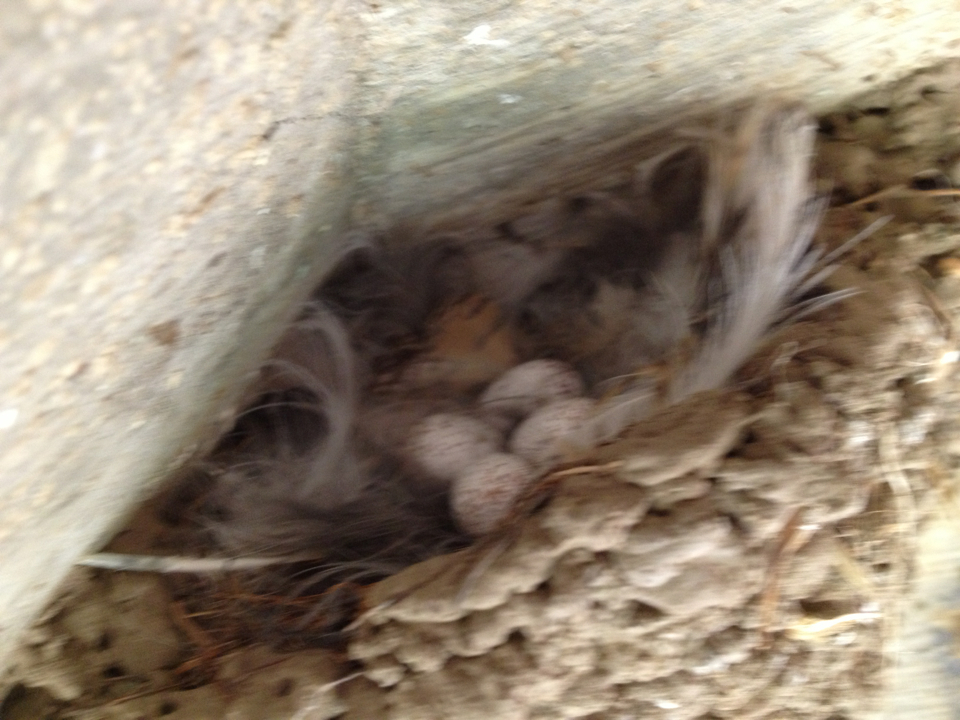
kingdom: Animalia
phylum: Chordata
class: Aves
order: Passeriformes
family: Tyrannidae
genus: Sayornis
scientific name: Sayornis nigricans
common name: Black phoebe
